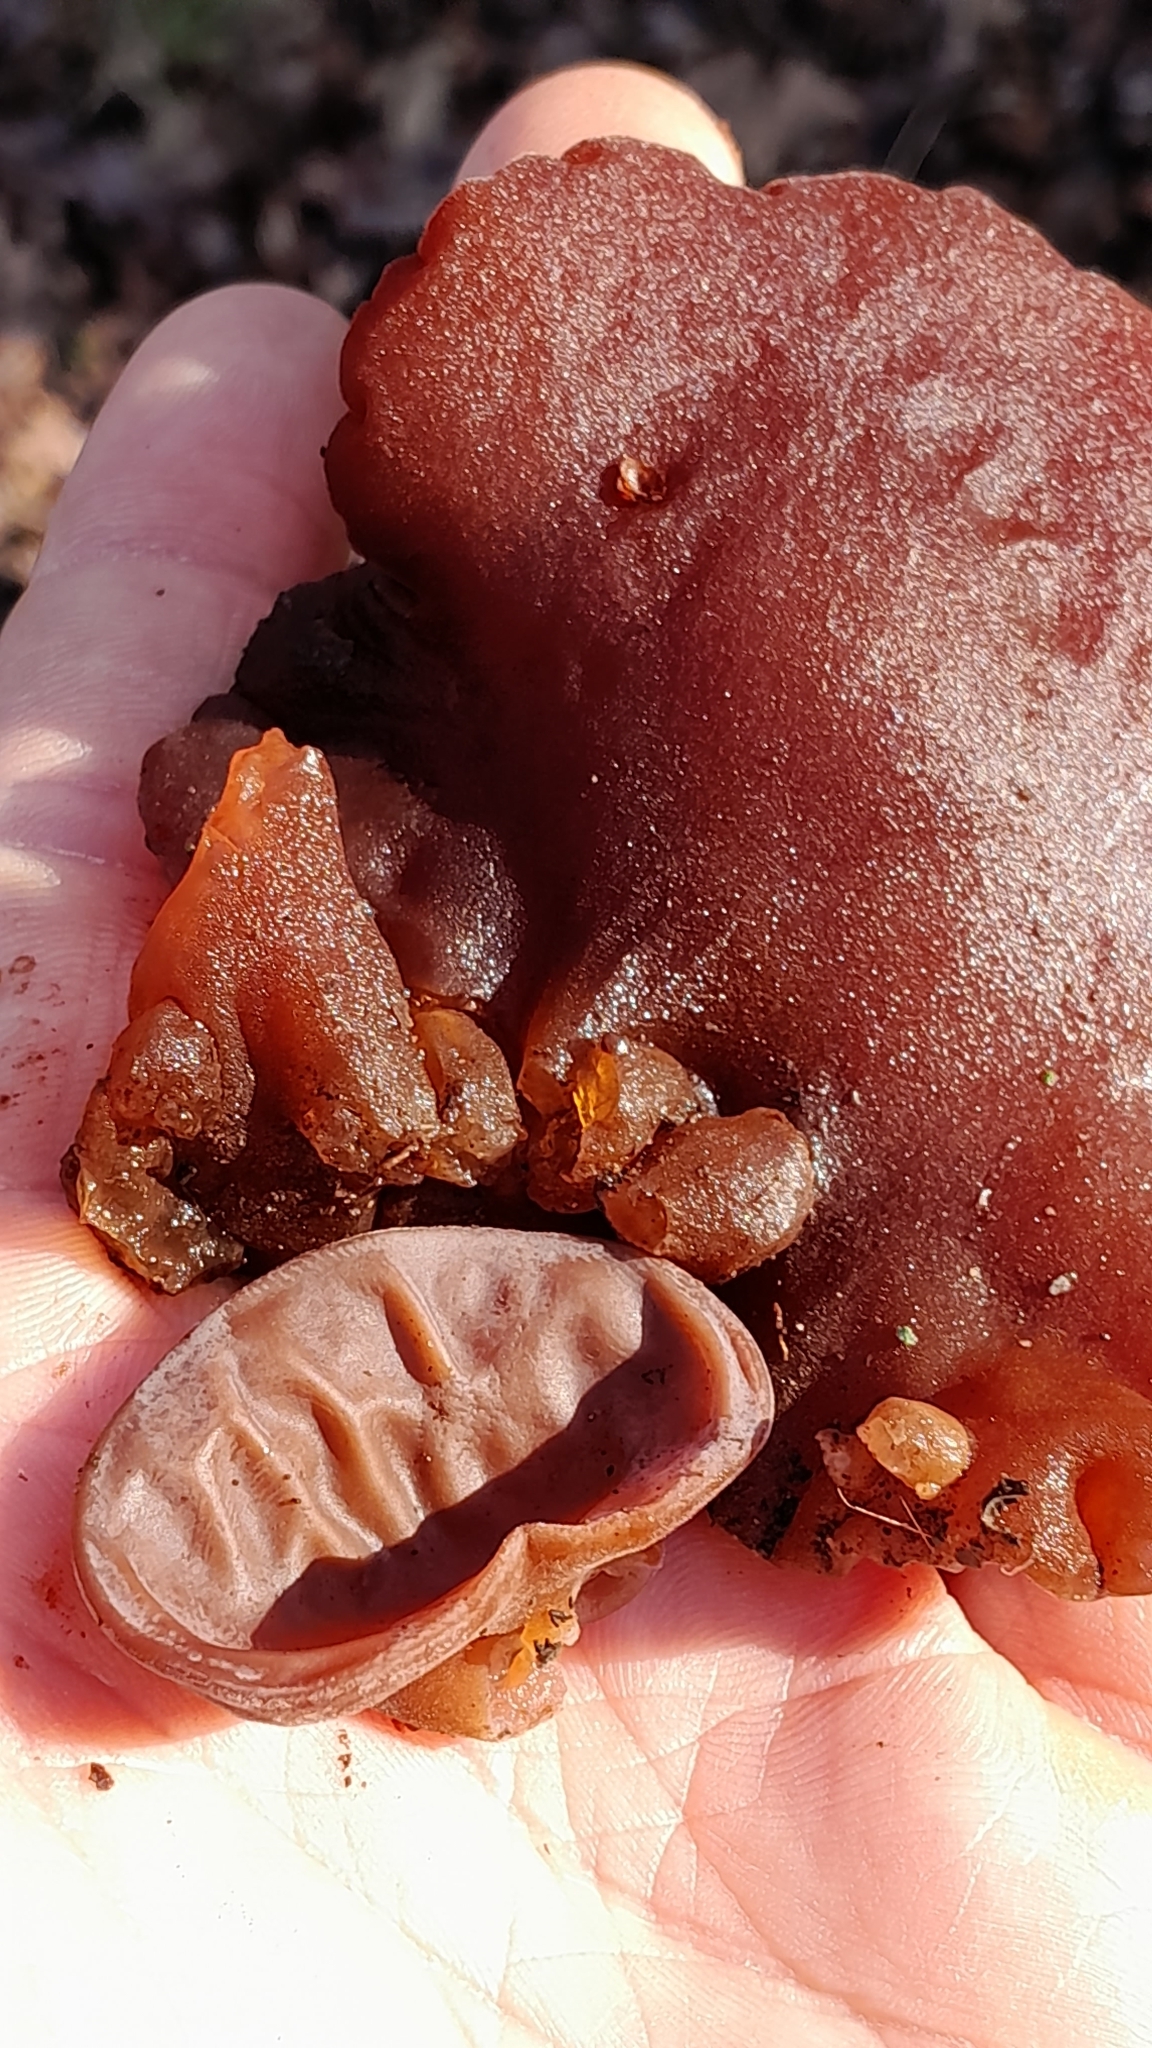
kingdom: Fungi
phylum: Basidiomycota
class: Agaricomycetes
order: Auriculariales
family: Auriculariaceae
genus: Auricularia
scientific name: Auricularia auricula-judae
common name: Jelly ear
